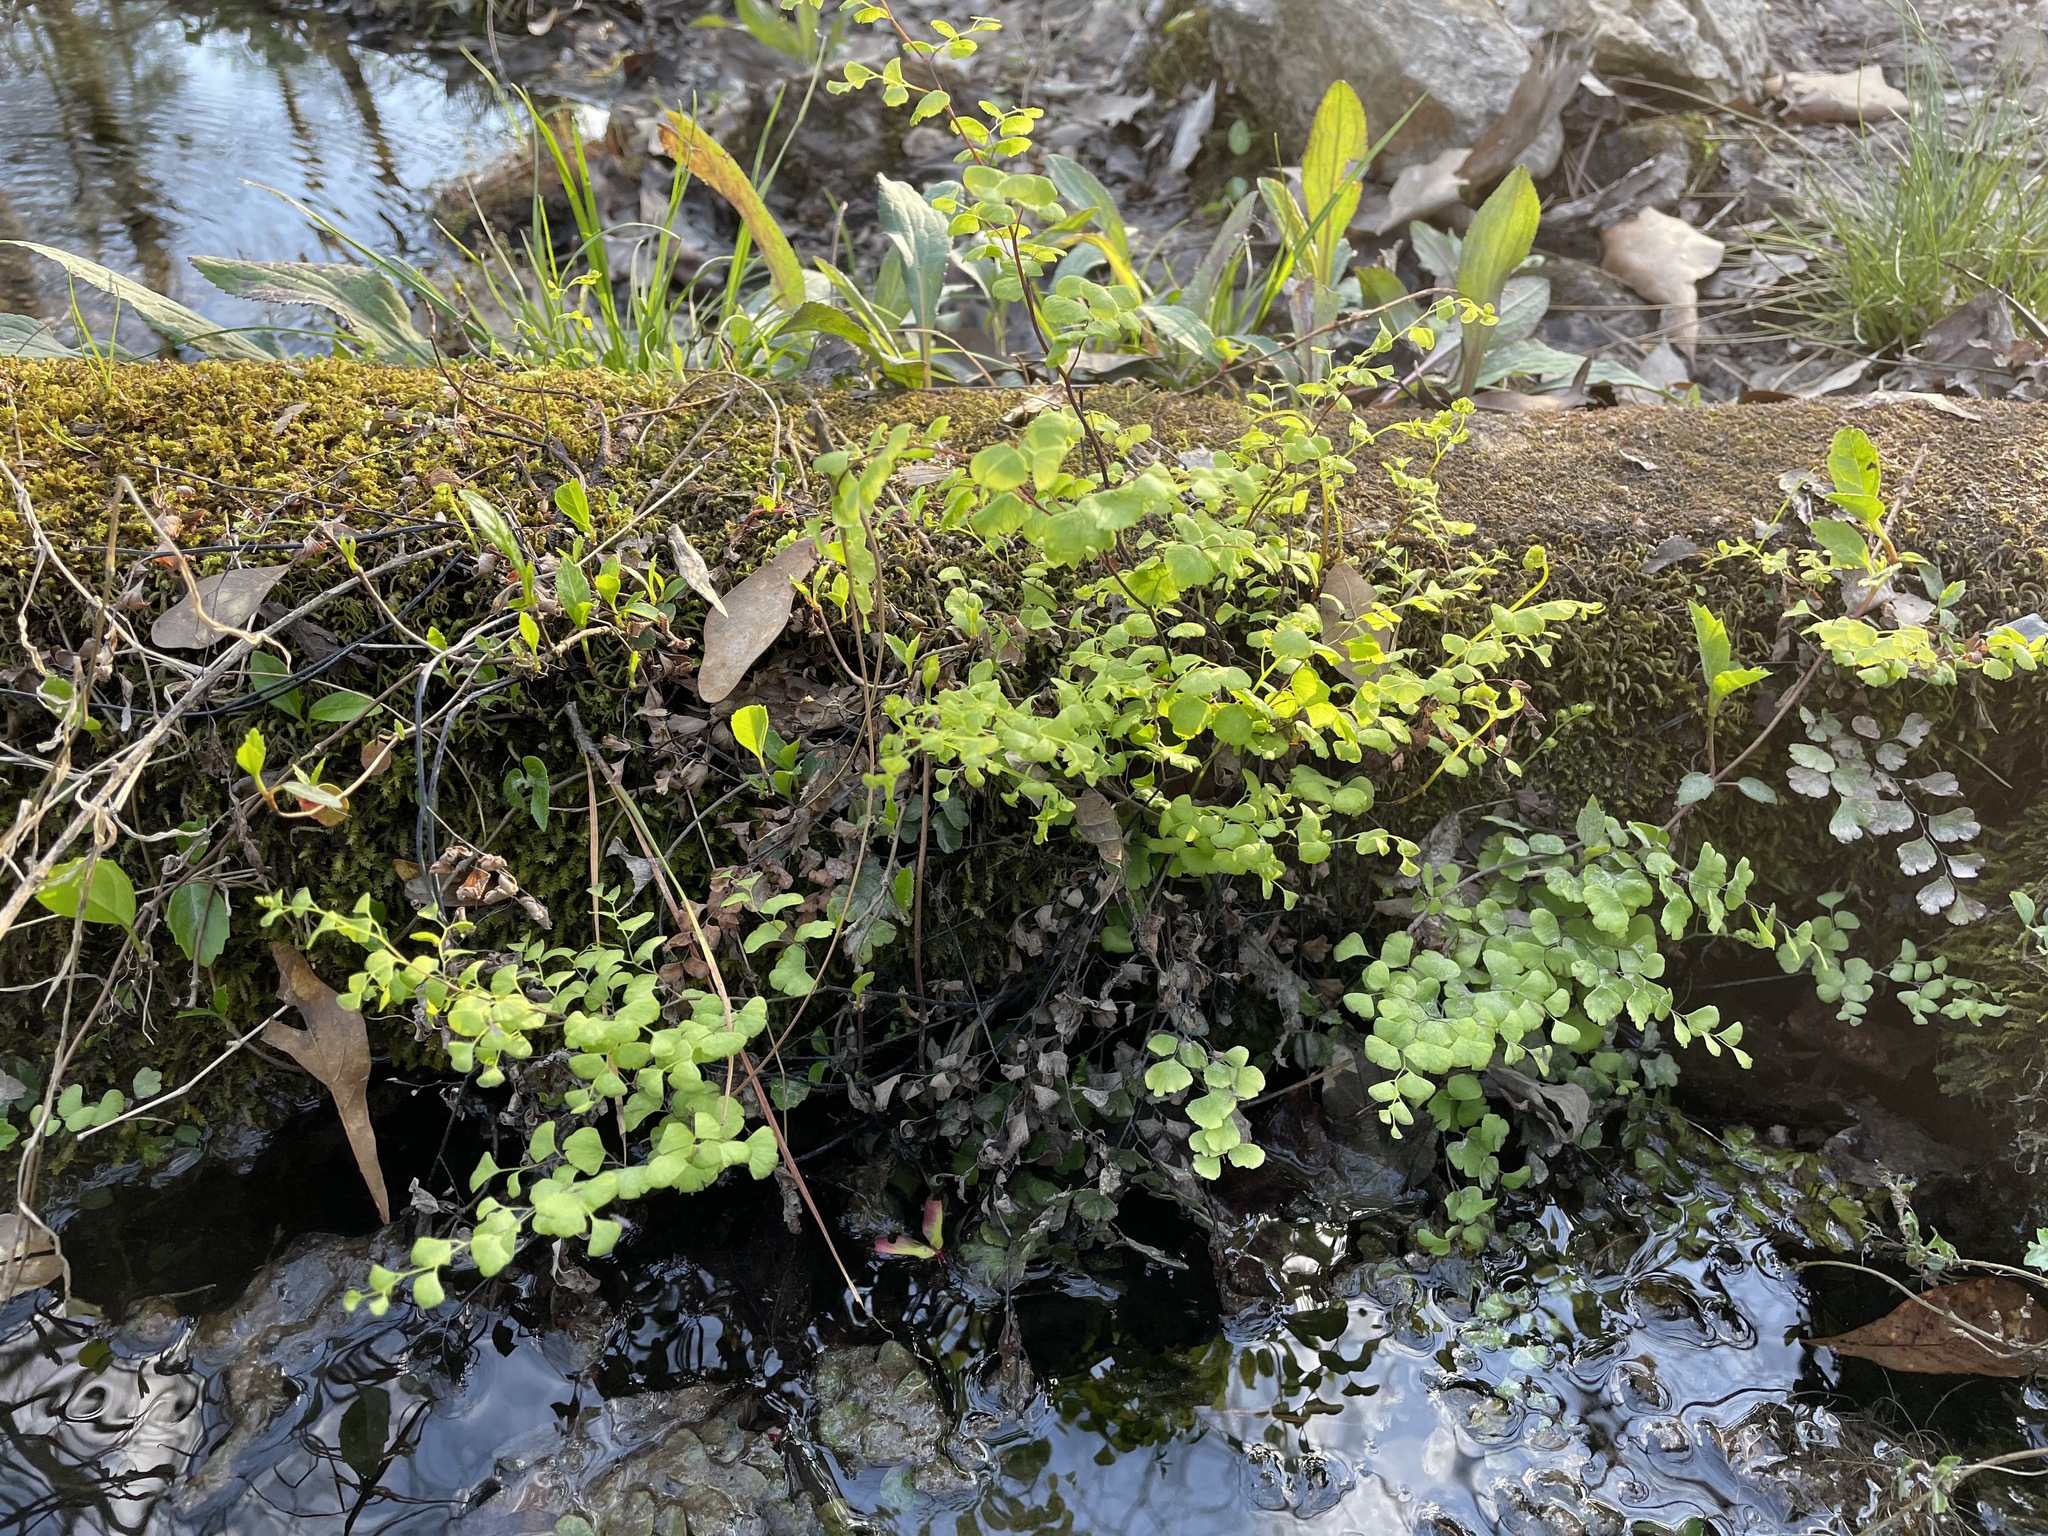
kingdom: Plantae
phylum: Tracheophyta
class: Polypodiopsida
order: Polypodiales
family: Pteridaceae
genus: Adiantum
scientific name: Adiantum capillus-veneris
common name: Maidenhair fern
